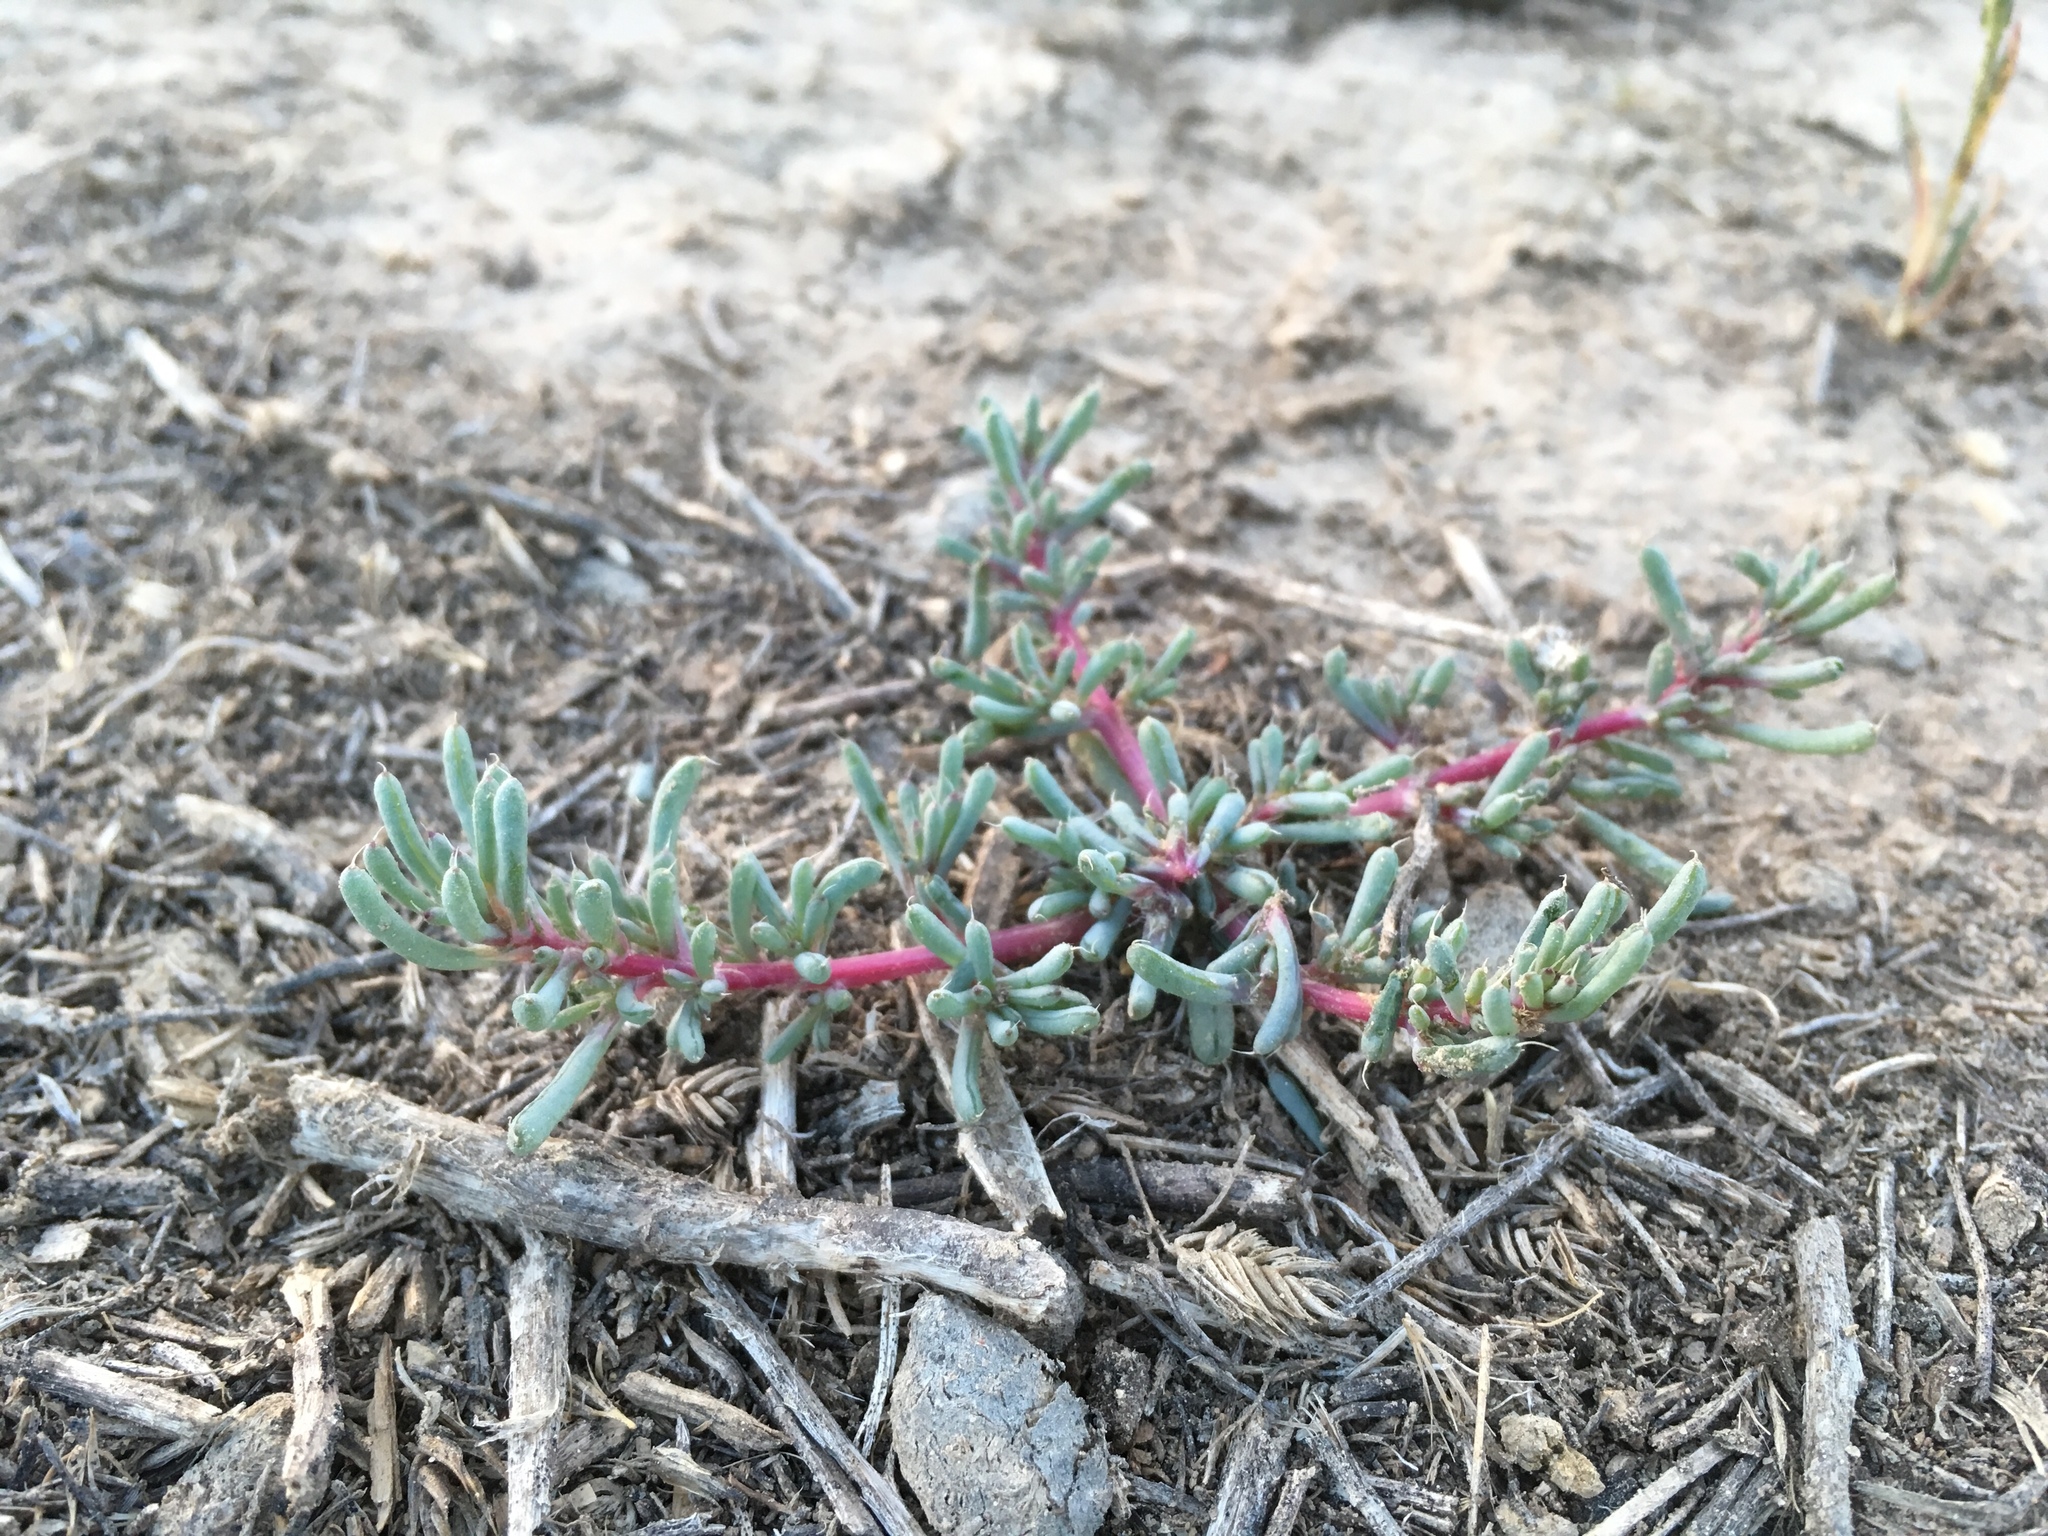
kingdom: Plantae
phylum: Tracheophyta
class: Magnoliopsida
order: Caryophyllales
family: Amaranthaceae
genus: Halogeton
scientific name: Halogeton glomeratus
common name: Saltlover
